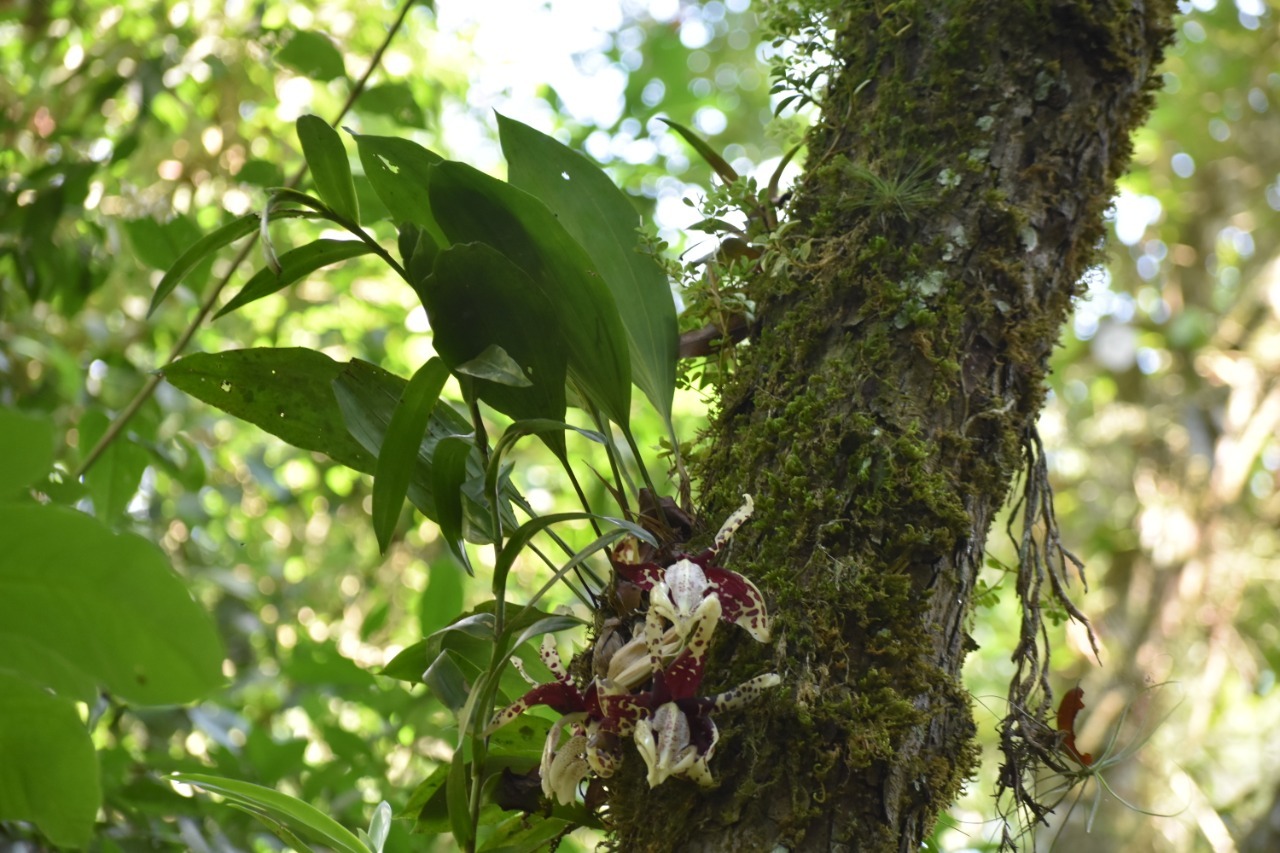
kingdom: Plantae
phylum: Tracheophyta
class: Liliopsida
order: Asparagales
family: Orchidaceae
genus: Stanhopea
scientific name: Stanhopea tigrina
